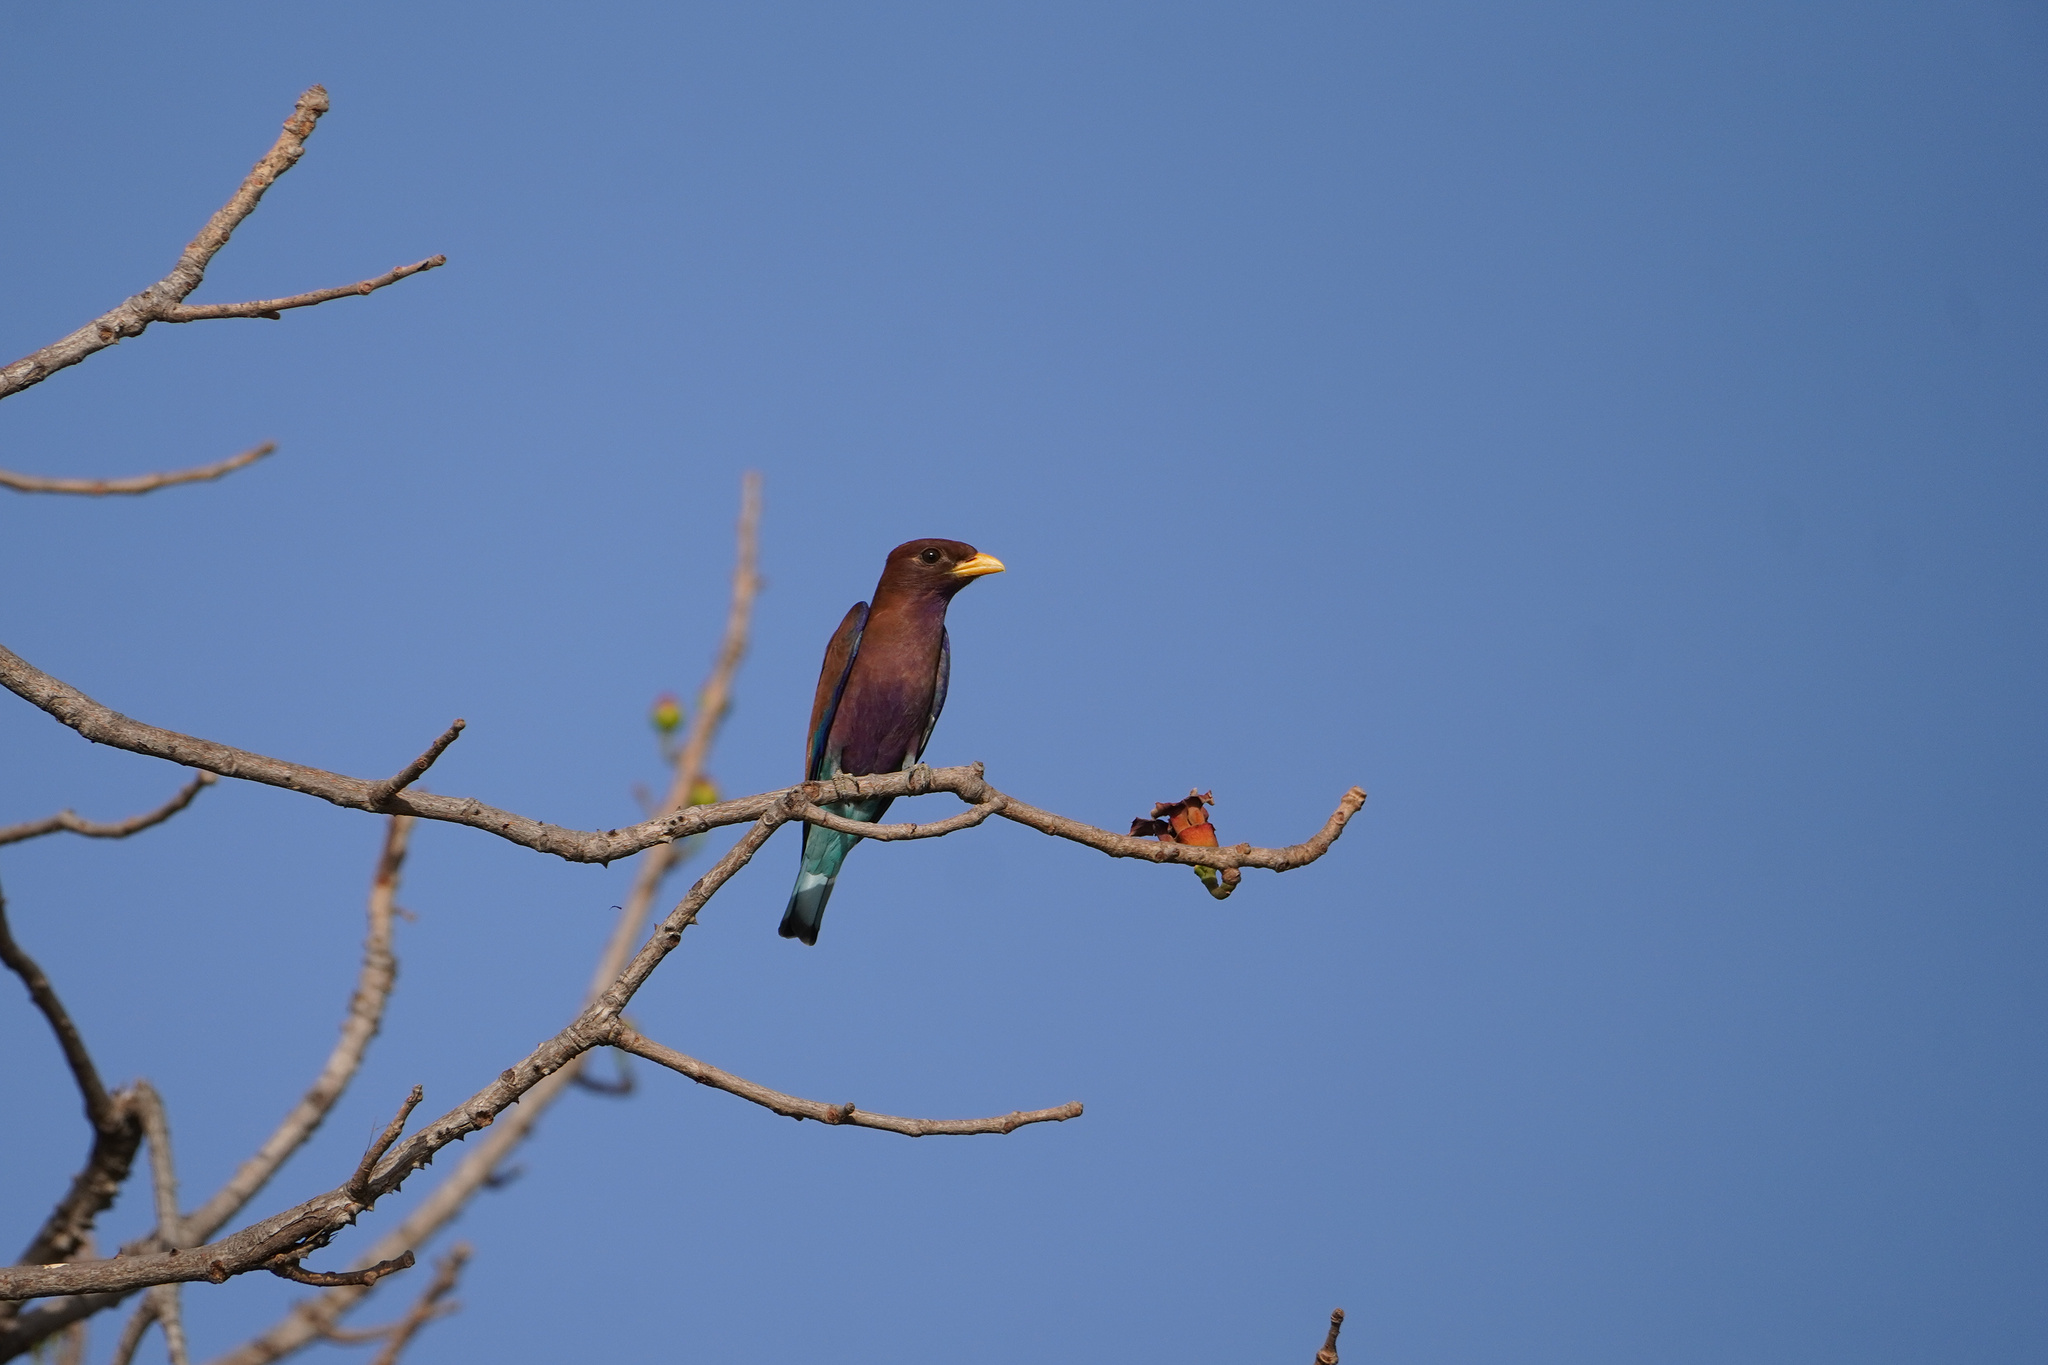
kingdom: Animalia
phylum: Chordata
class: Aves
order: Coraciiformes
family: Coraciidae
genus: Eurystomus
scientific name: Eurystomus glaucurus
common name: Broad-billed roller
